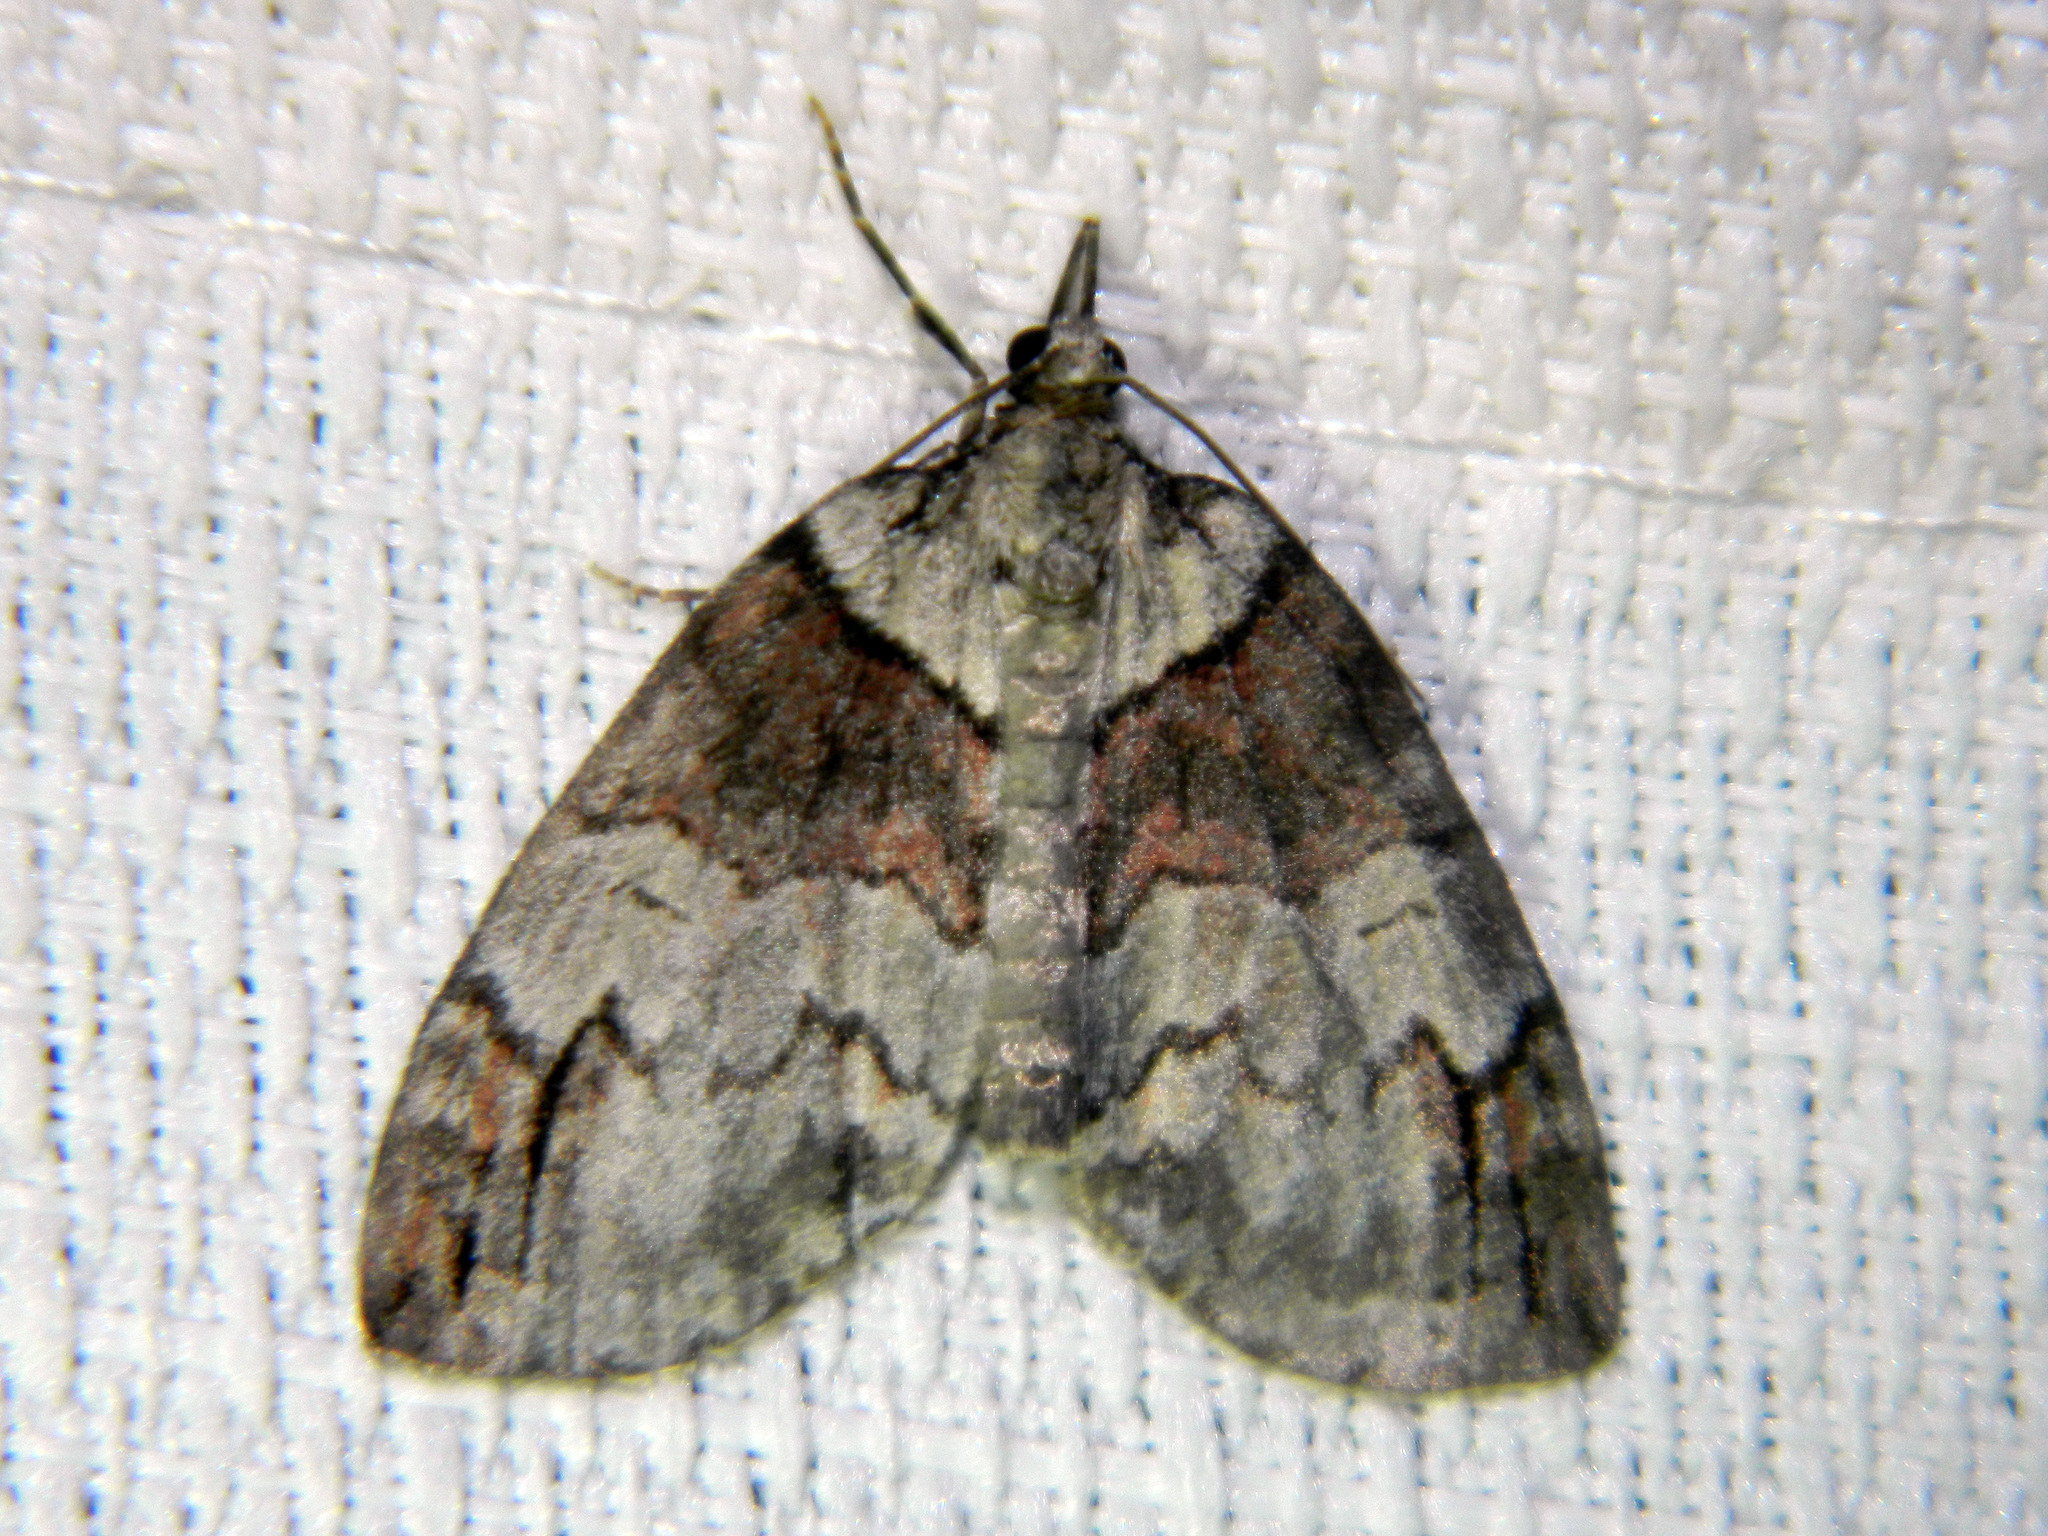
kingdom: Animalia
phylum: Arthropoda
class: Insecta
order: Lepidoptera
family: Geometridae
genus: Hydriomena
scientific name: Hydriomena ruberata
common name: Ruddy highflyer
